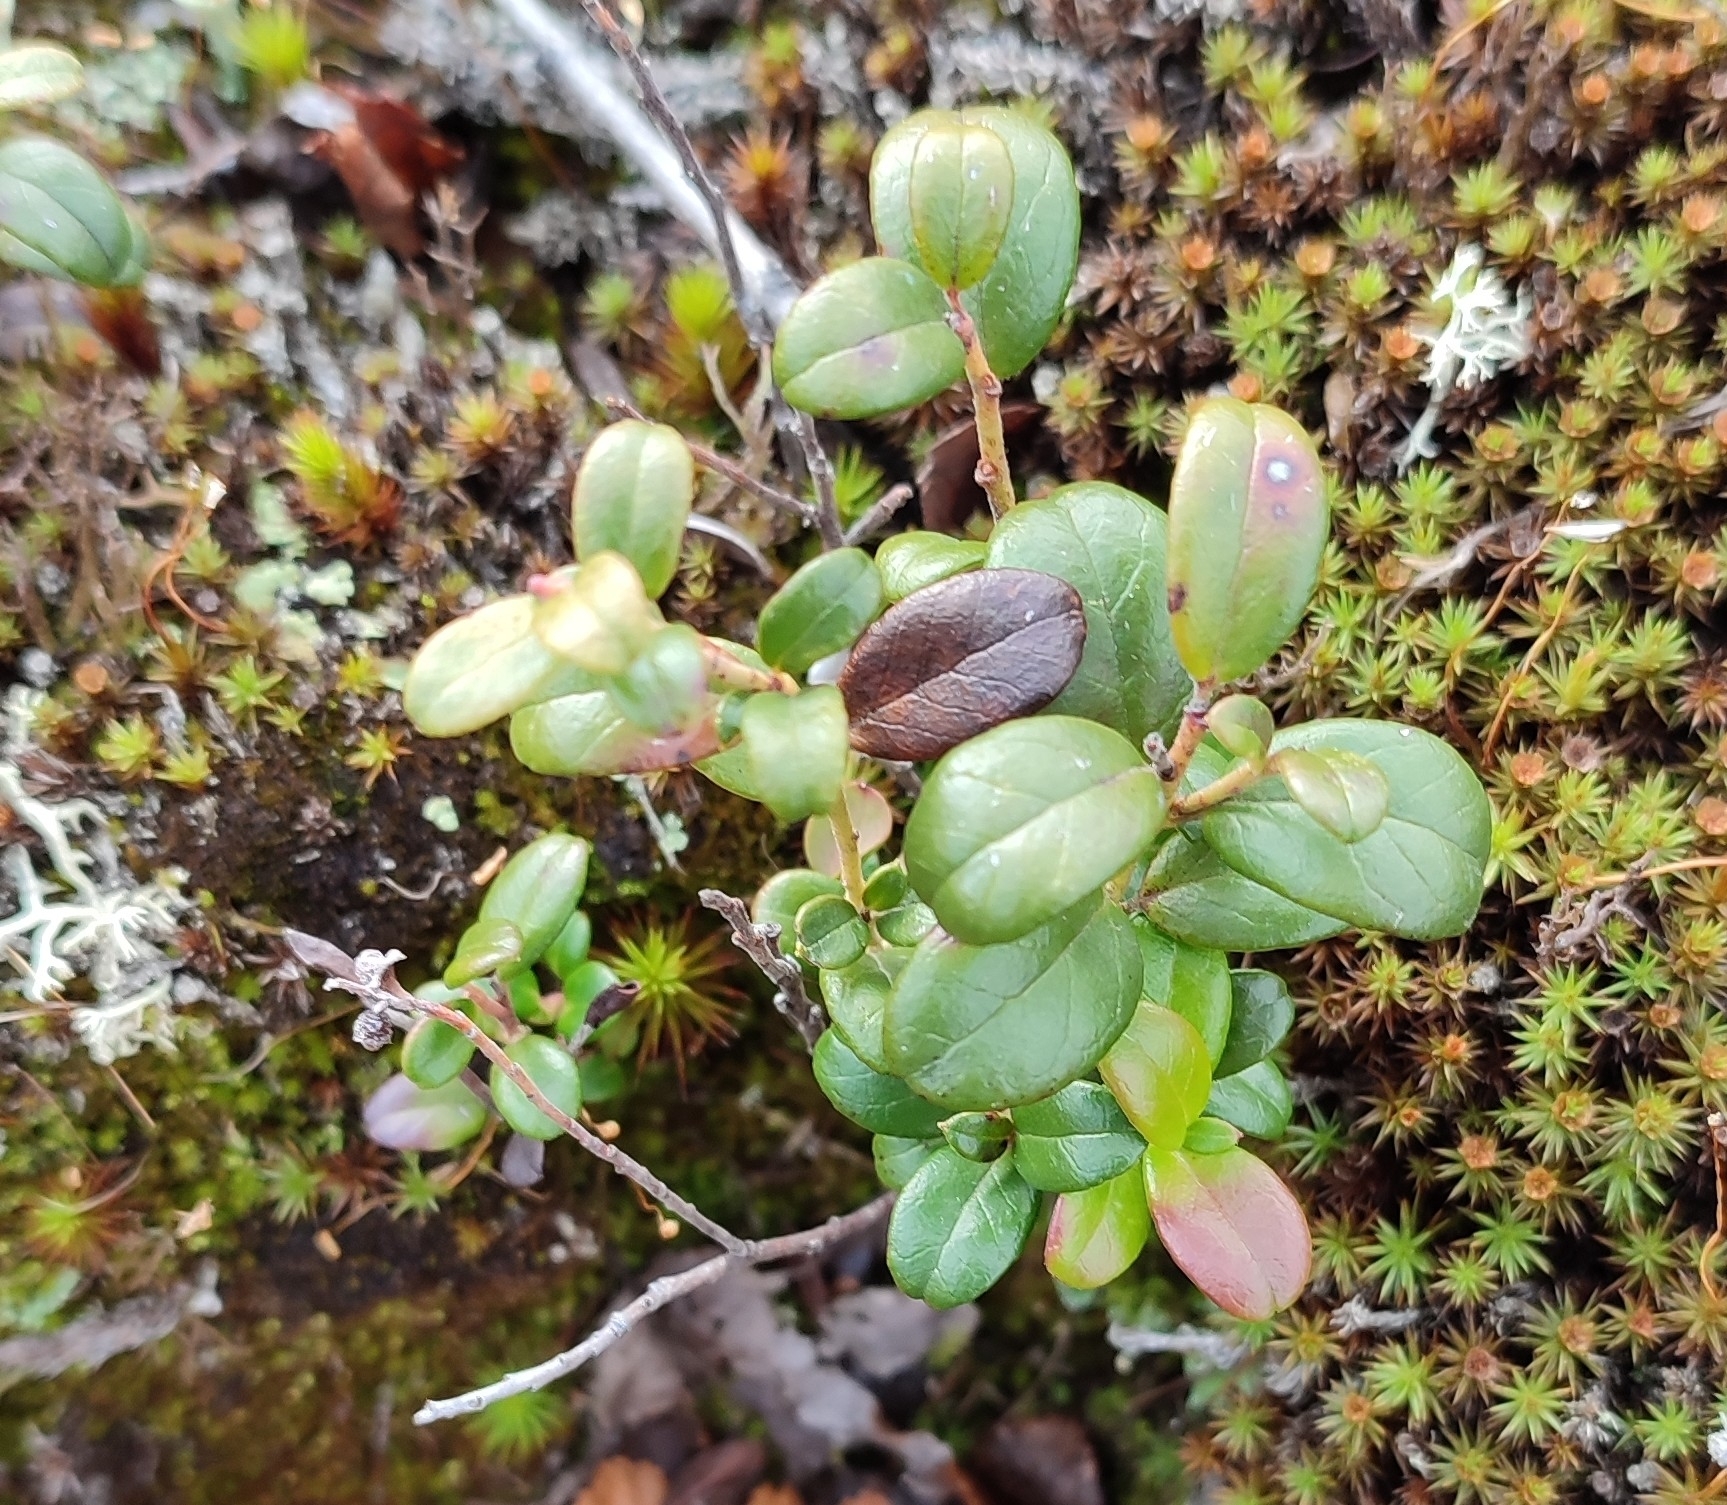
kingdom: Plantae
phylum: Tracheophyta
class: Magnoliopsida
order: Ericales
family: Ericaceae
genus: Vaccinium
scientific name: Vaccinium vitis-idaea
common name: Cowberry
